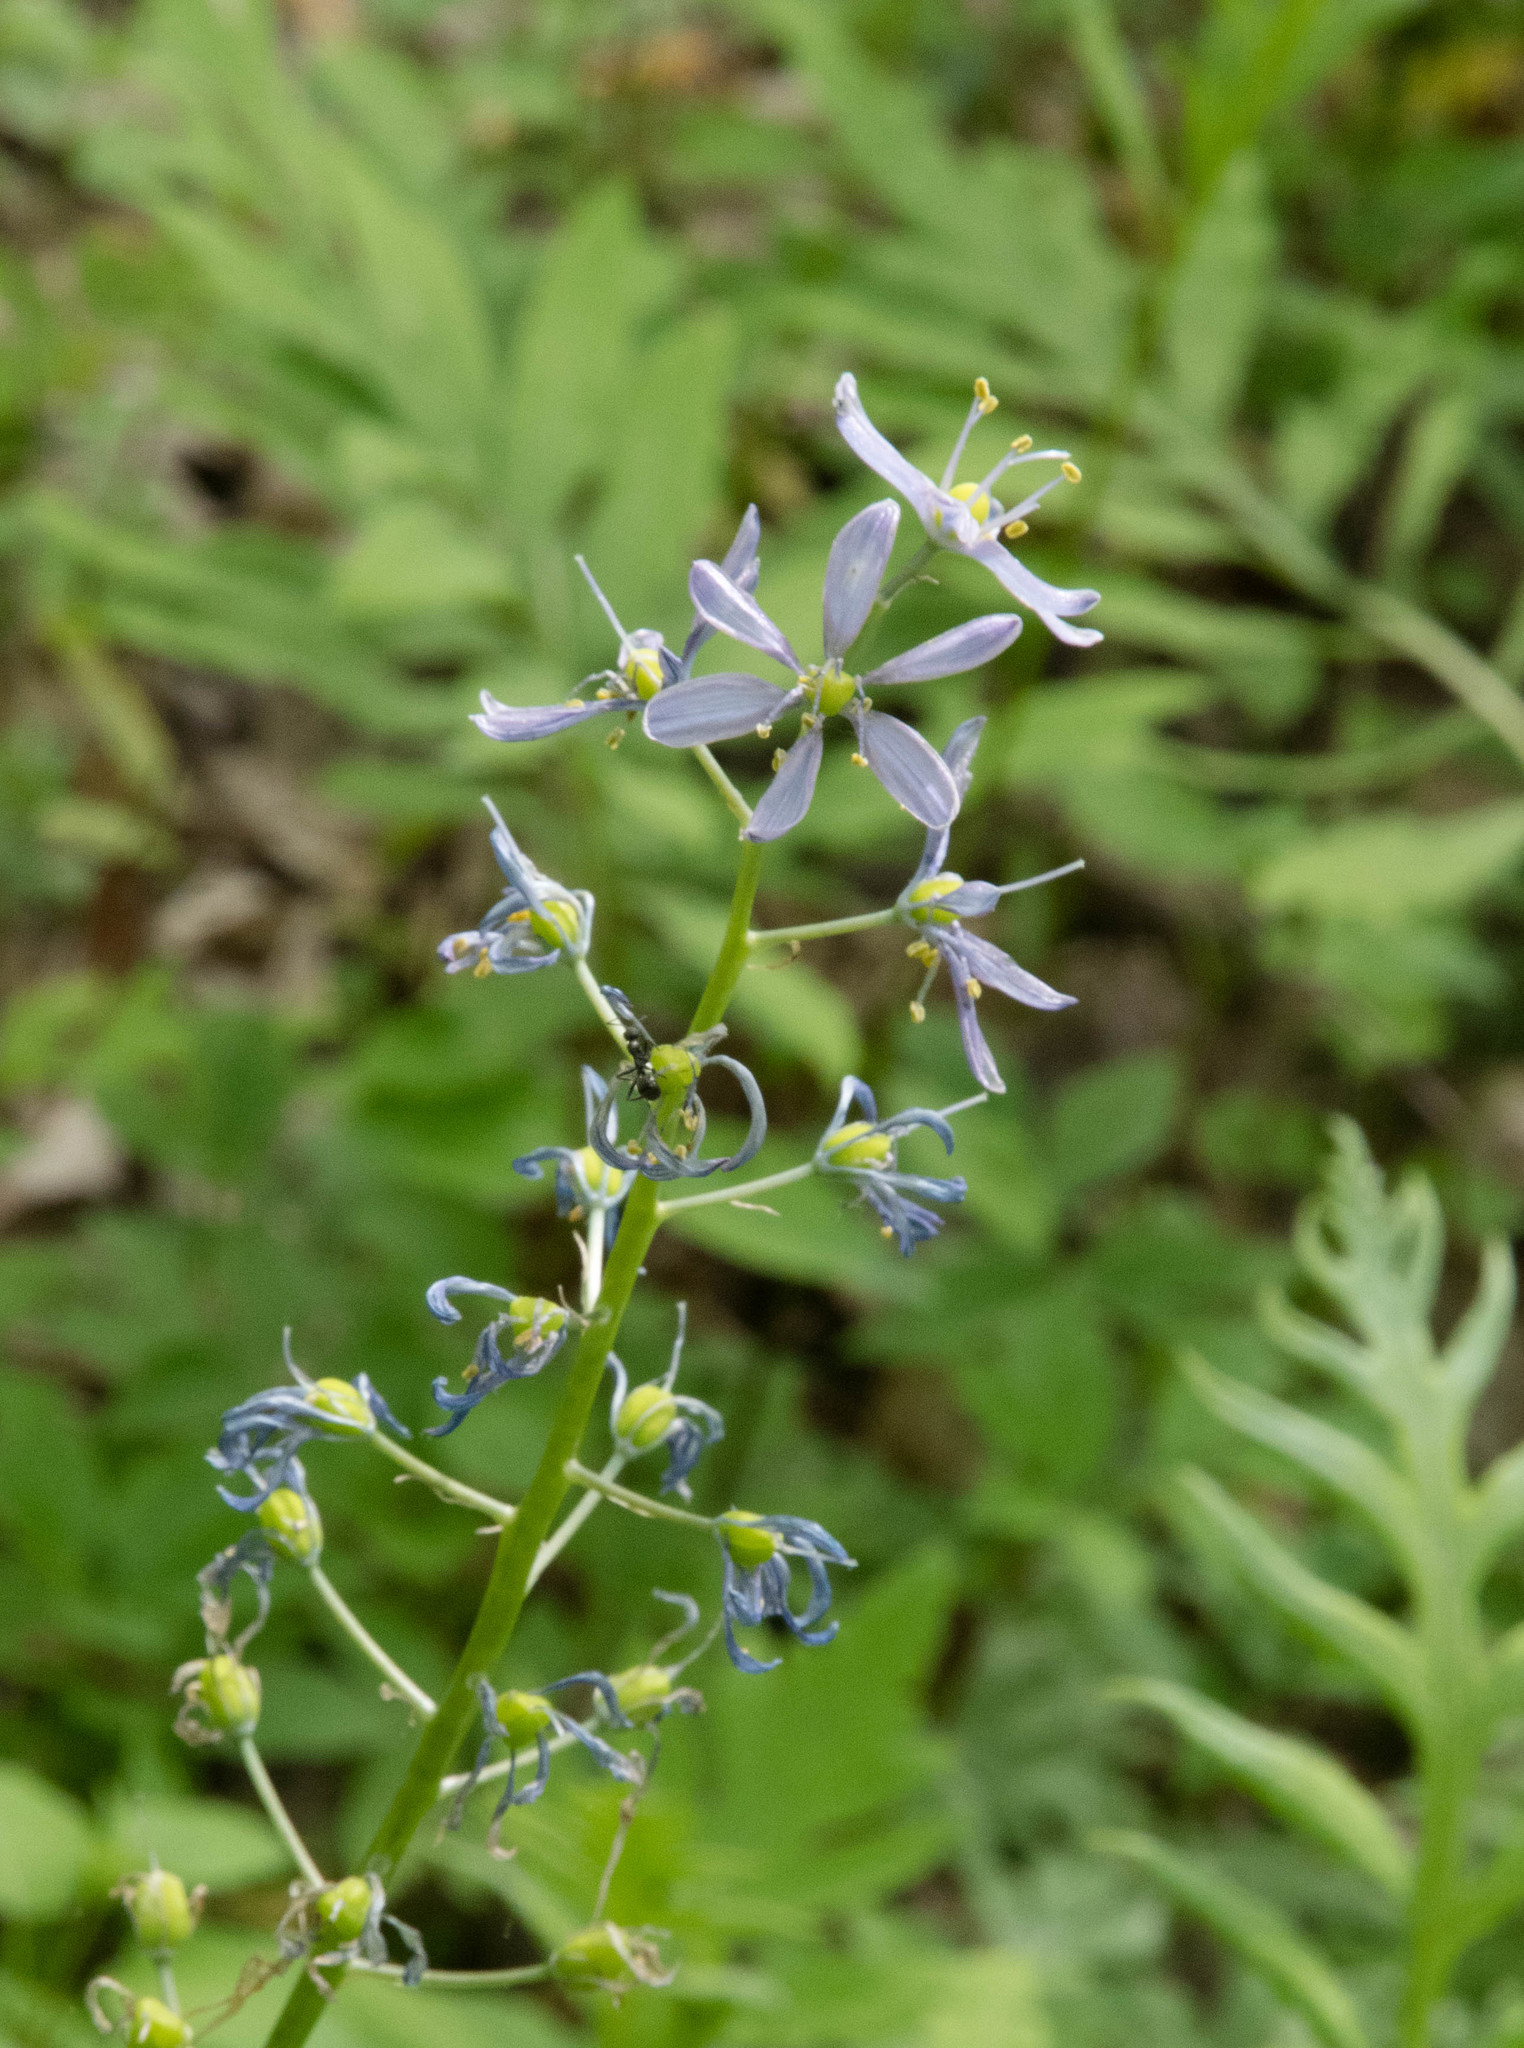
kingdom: Plantae
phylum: Tracheophyta
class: Liliopsida
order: Asparagales
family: Asparagaceae
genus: Camassia
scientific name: Camassia scilloides
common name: Wild hyacinth
